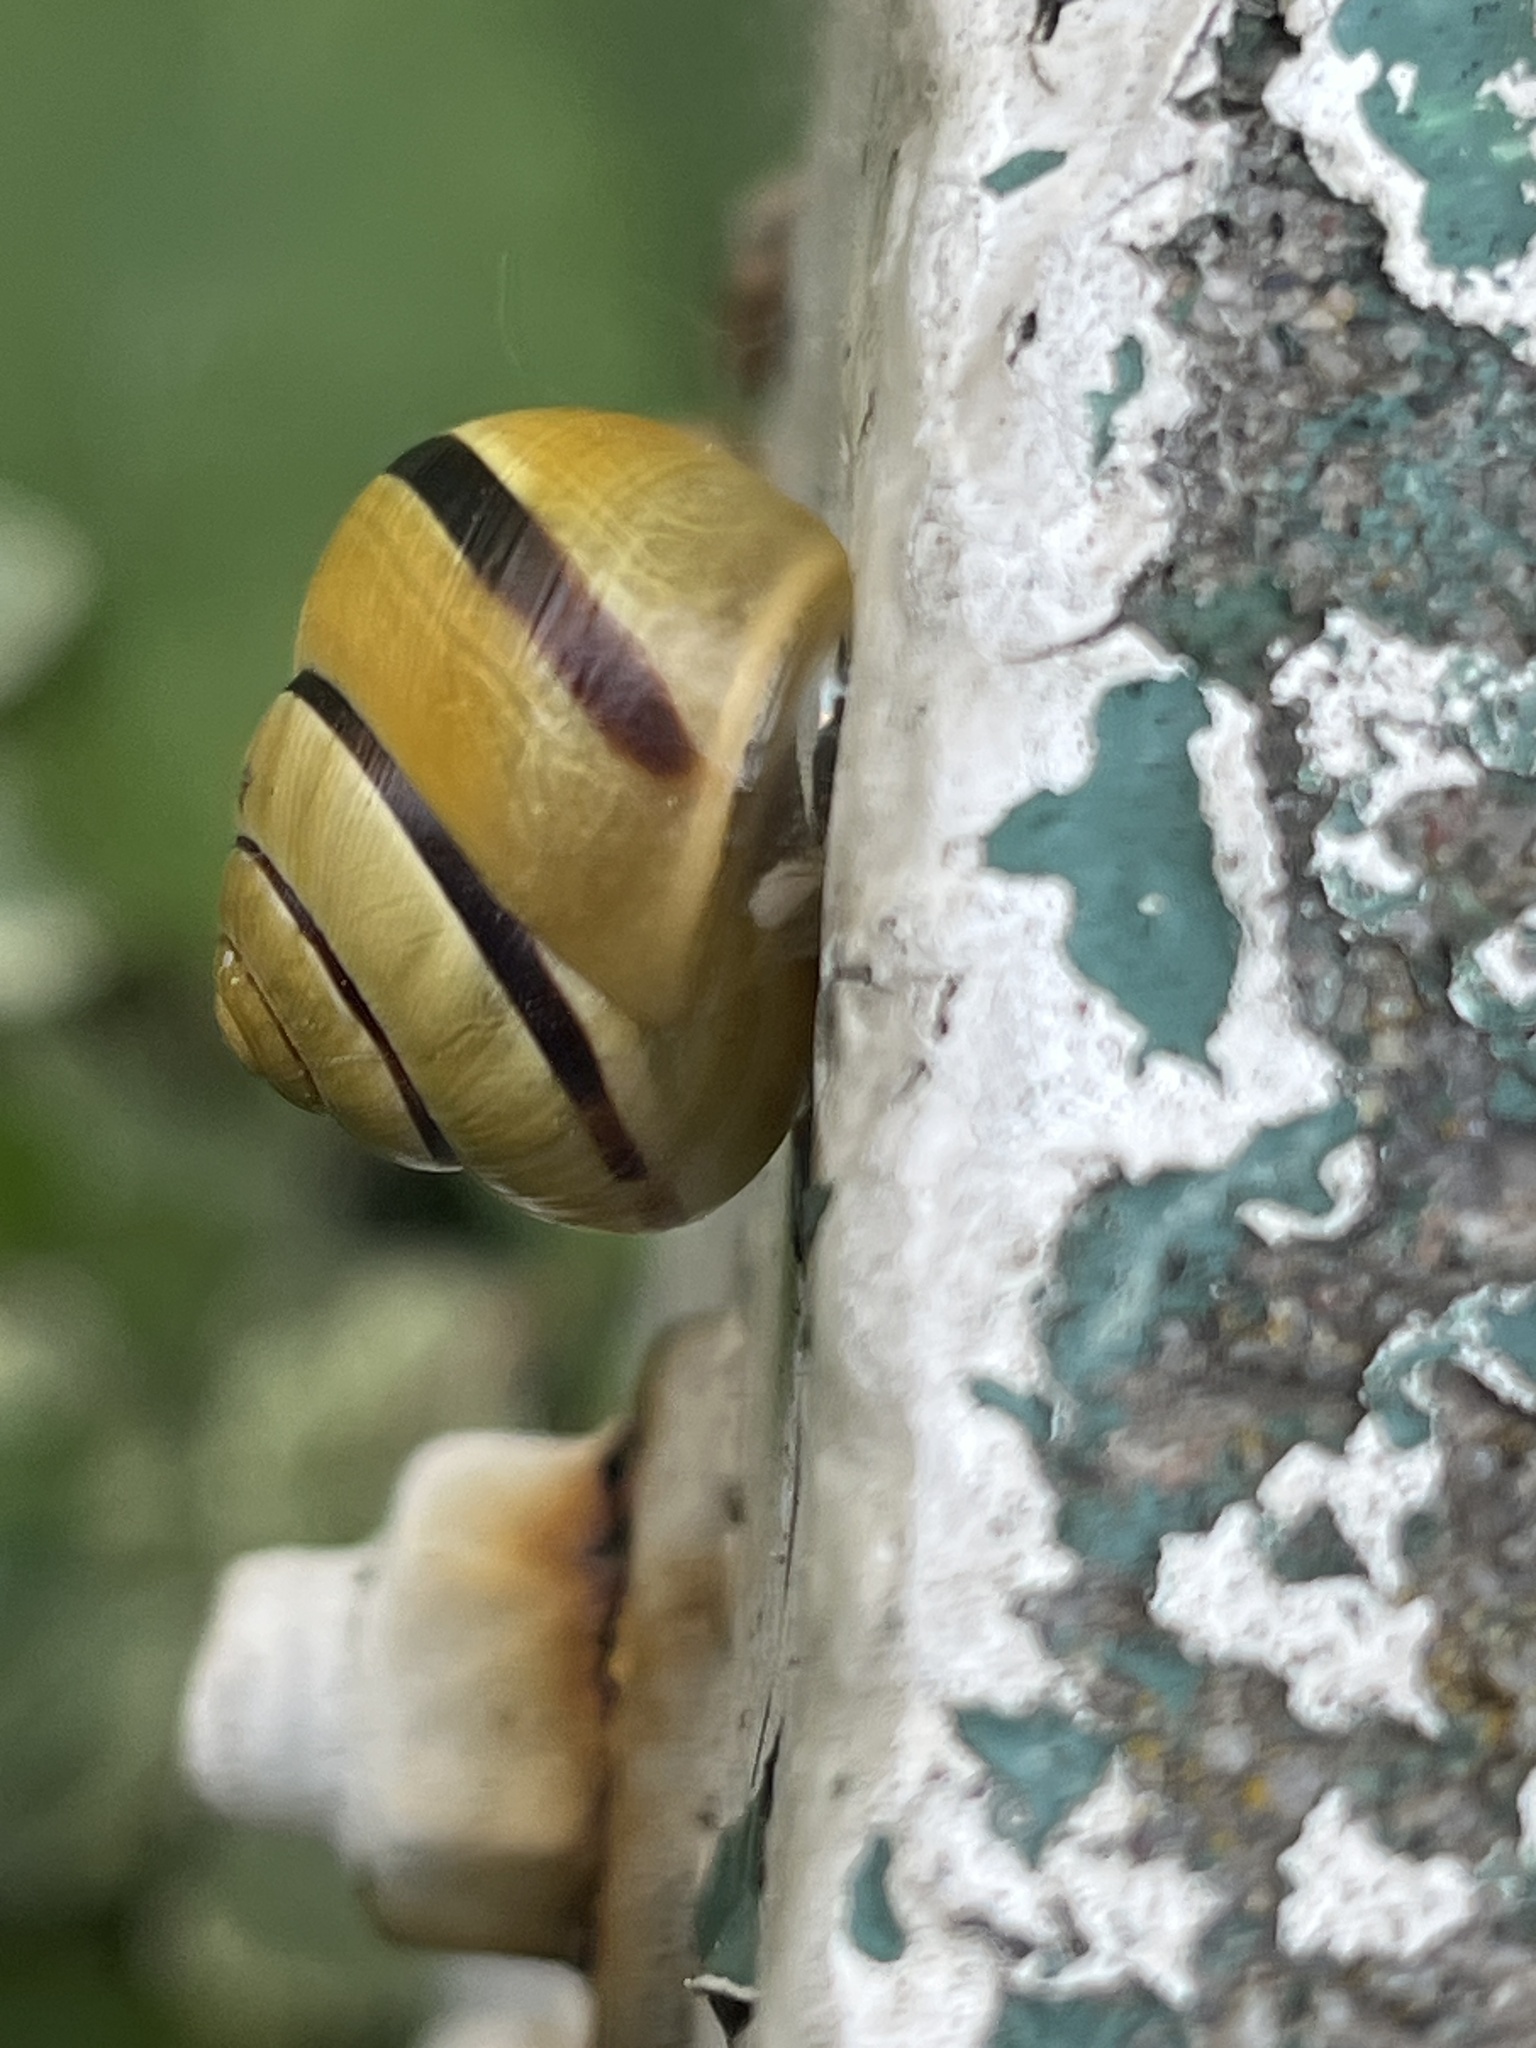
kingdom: Animalia
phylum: Mollusca
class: Gastropoda
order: Stylommatophora
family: Helicidae
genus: Cepaea
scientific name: Cepaea nemoralis
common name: Grovesnail
